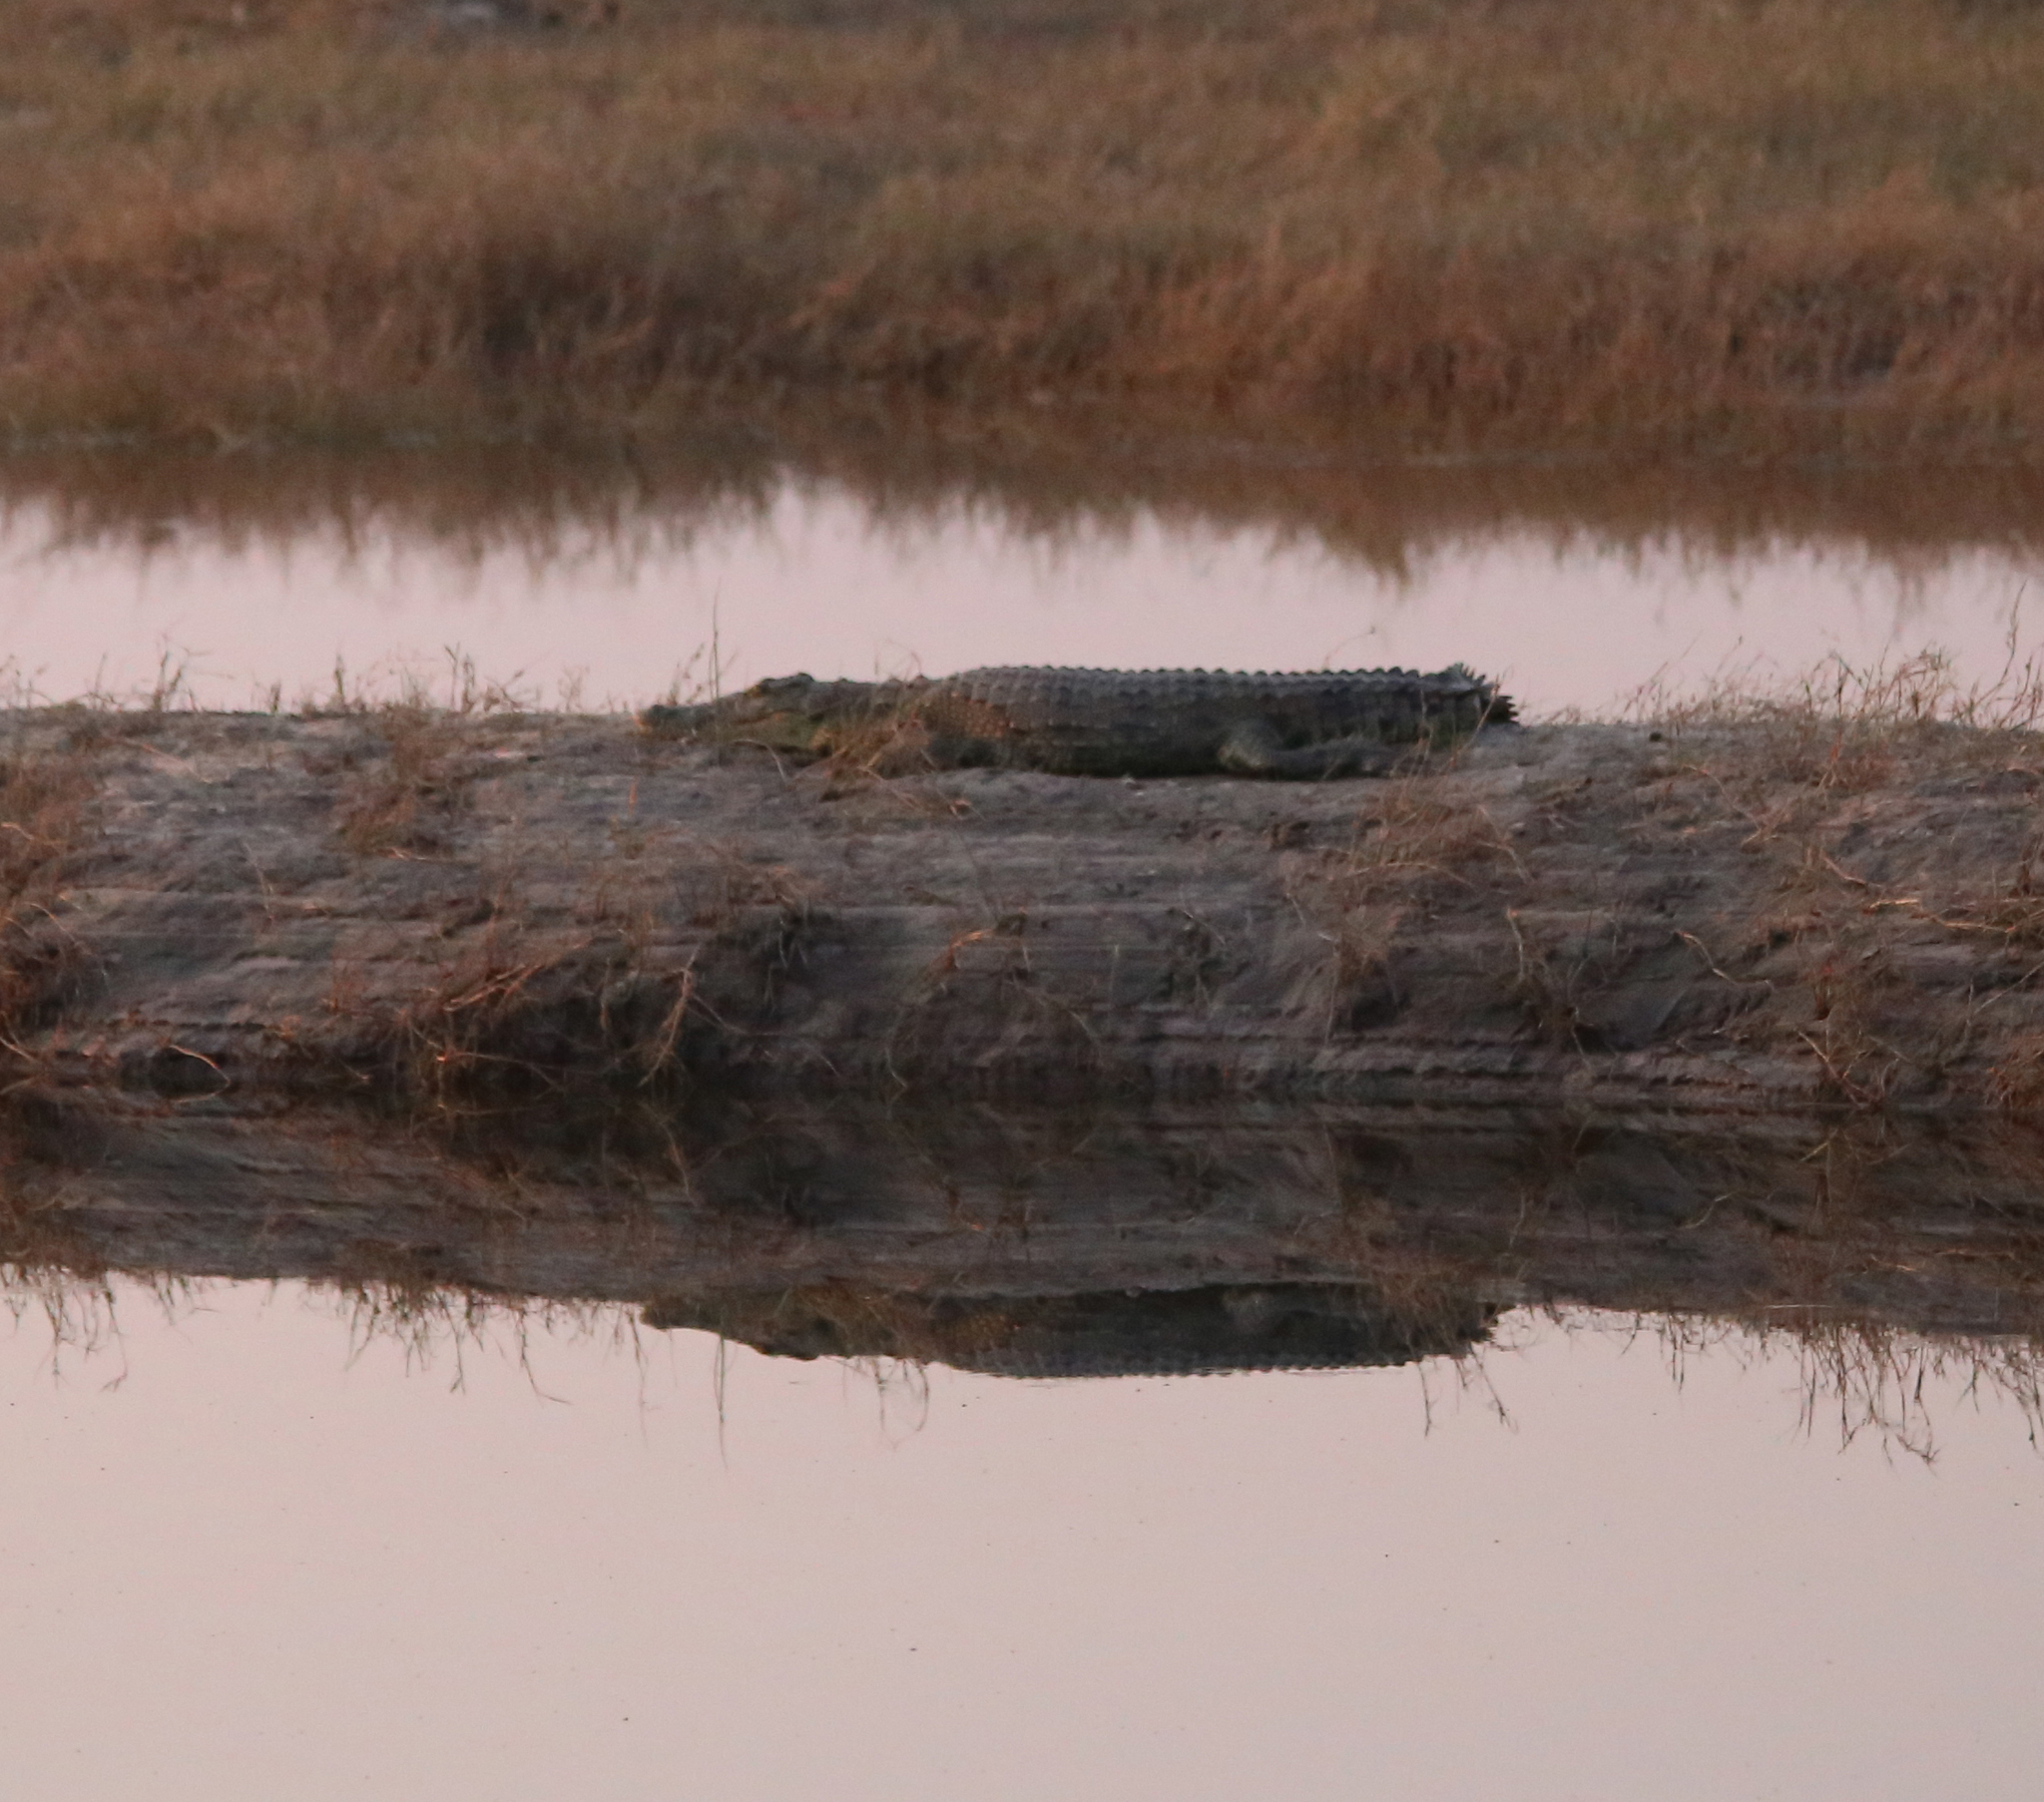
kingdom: Animalia
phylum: Chordata
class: Crocodylia
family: Crocodylidae
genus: Crocodylus
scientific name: Crocodylus niloticus
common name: Nile crocodile
